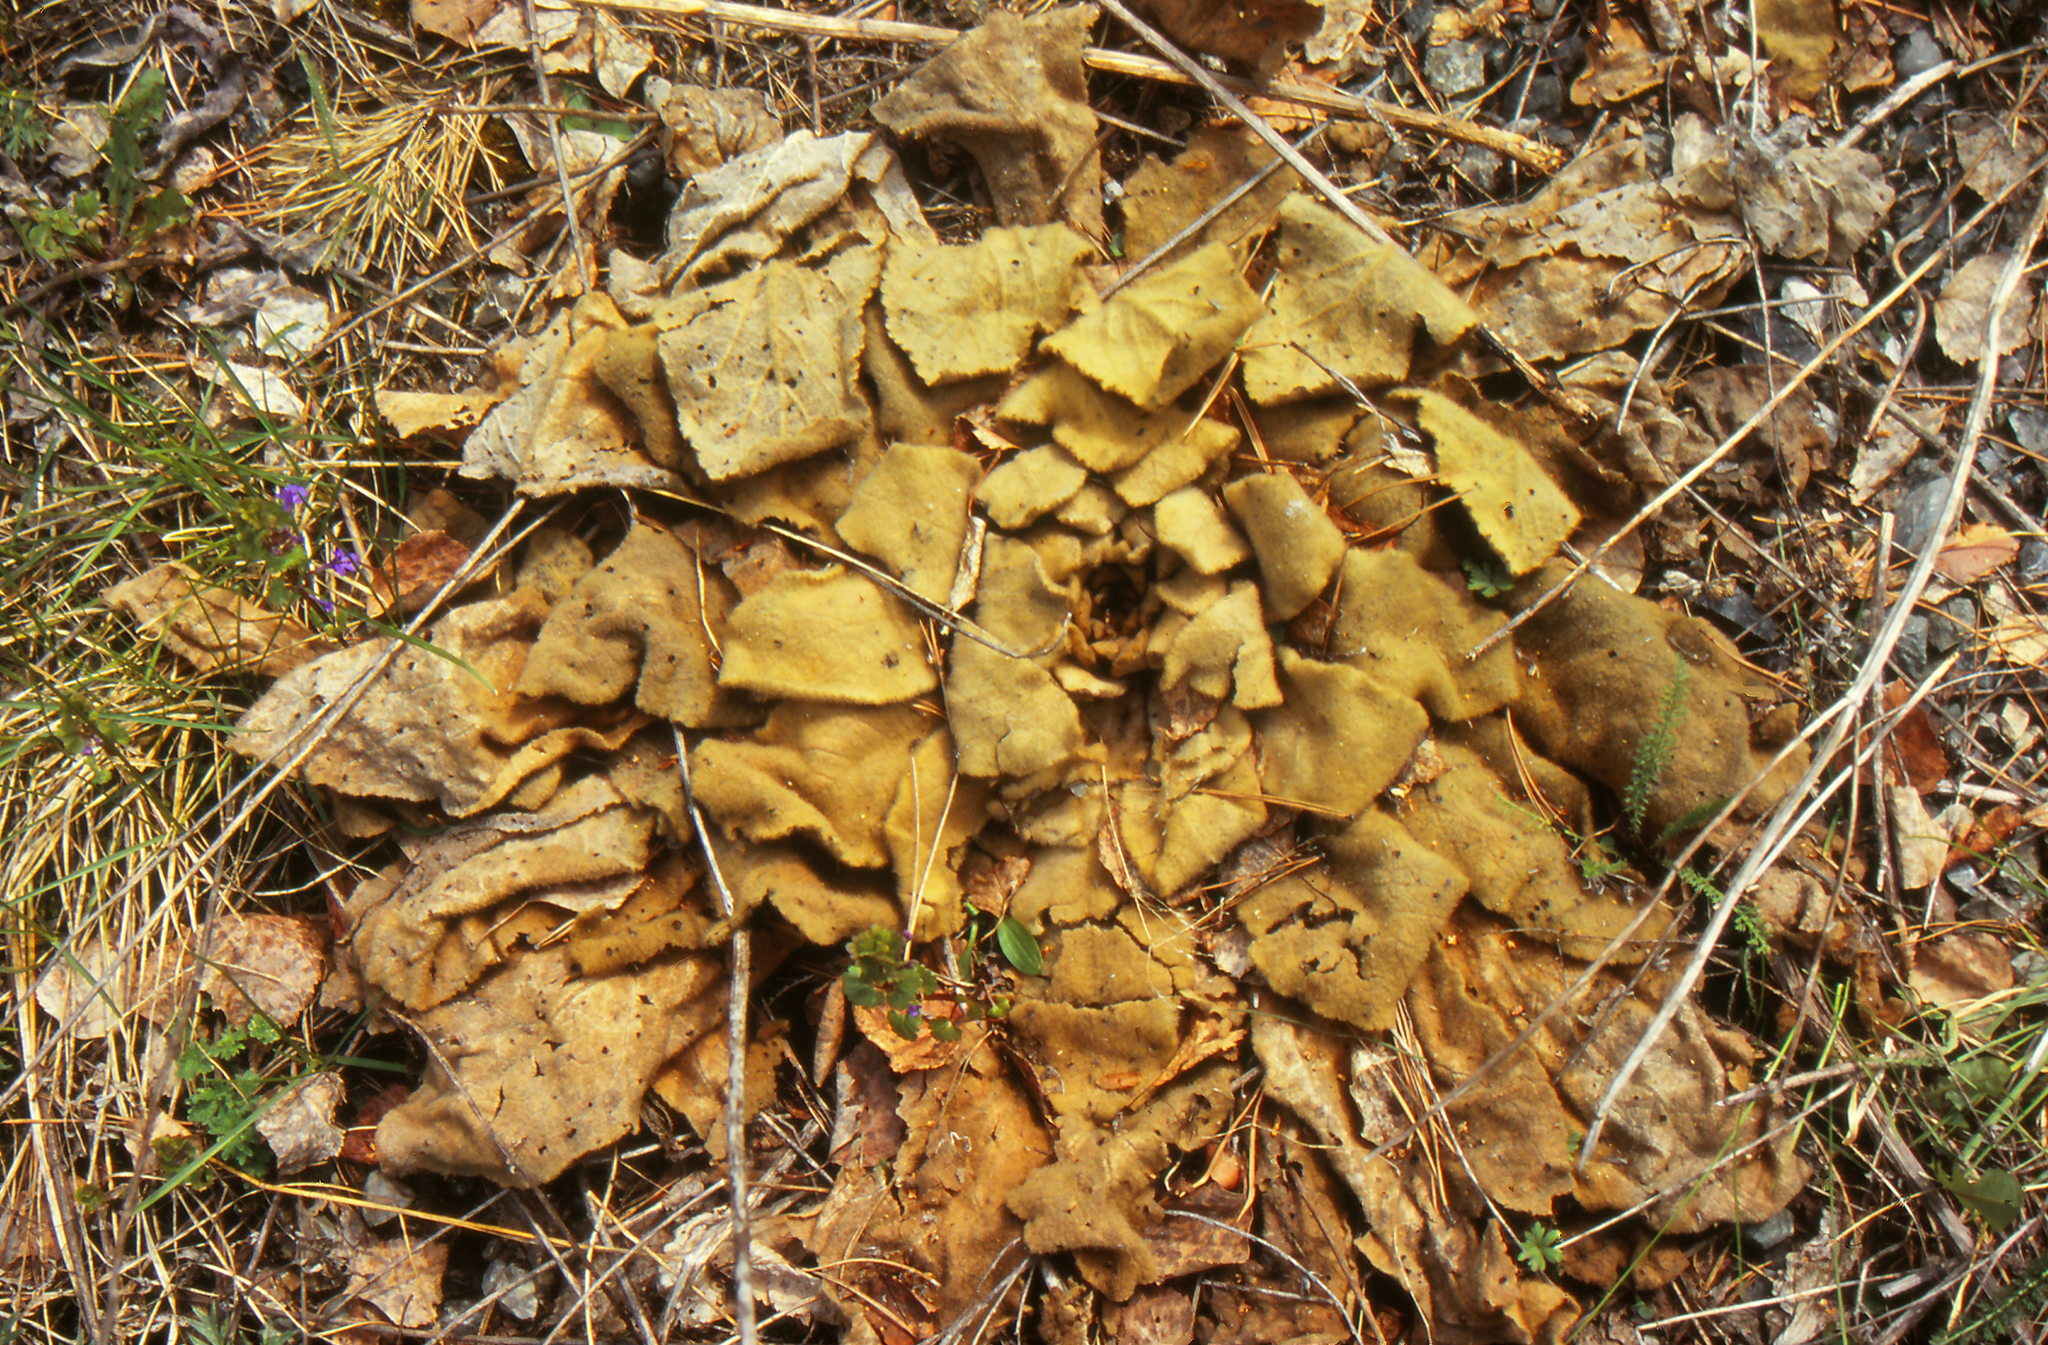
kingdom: Plantae
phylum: Tracheophyta
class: Magnoliopsida
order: Lamiales
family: Scrophulariaceae
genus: Verbascum
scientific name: Verbascum thapsus
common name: Common mullein
